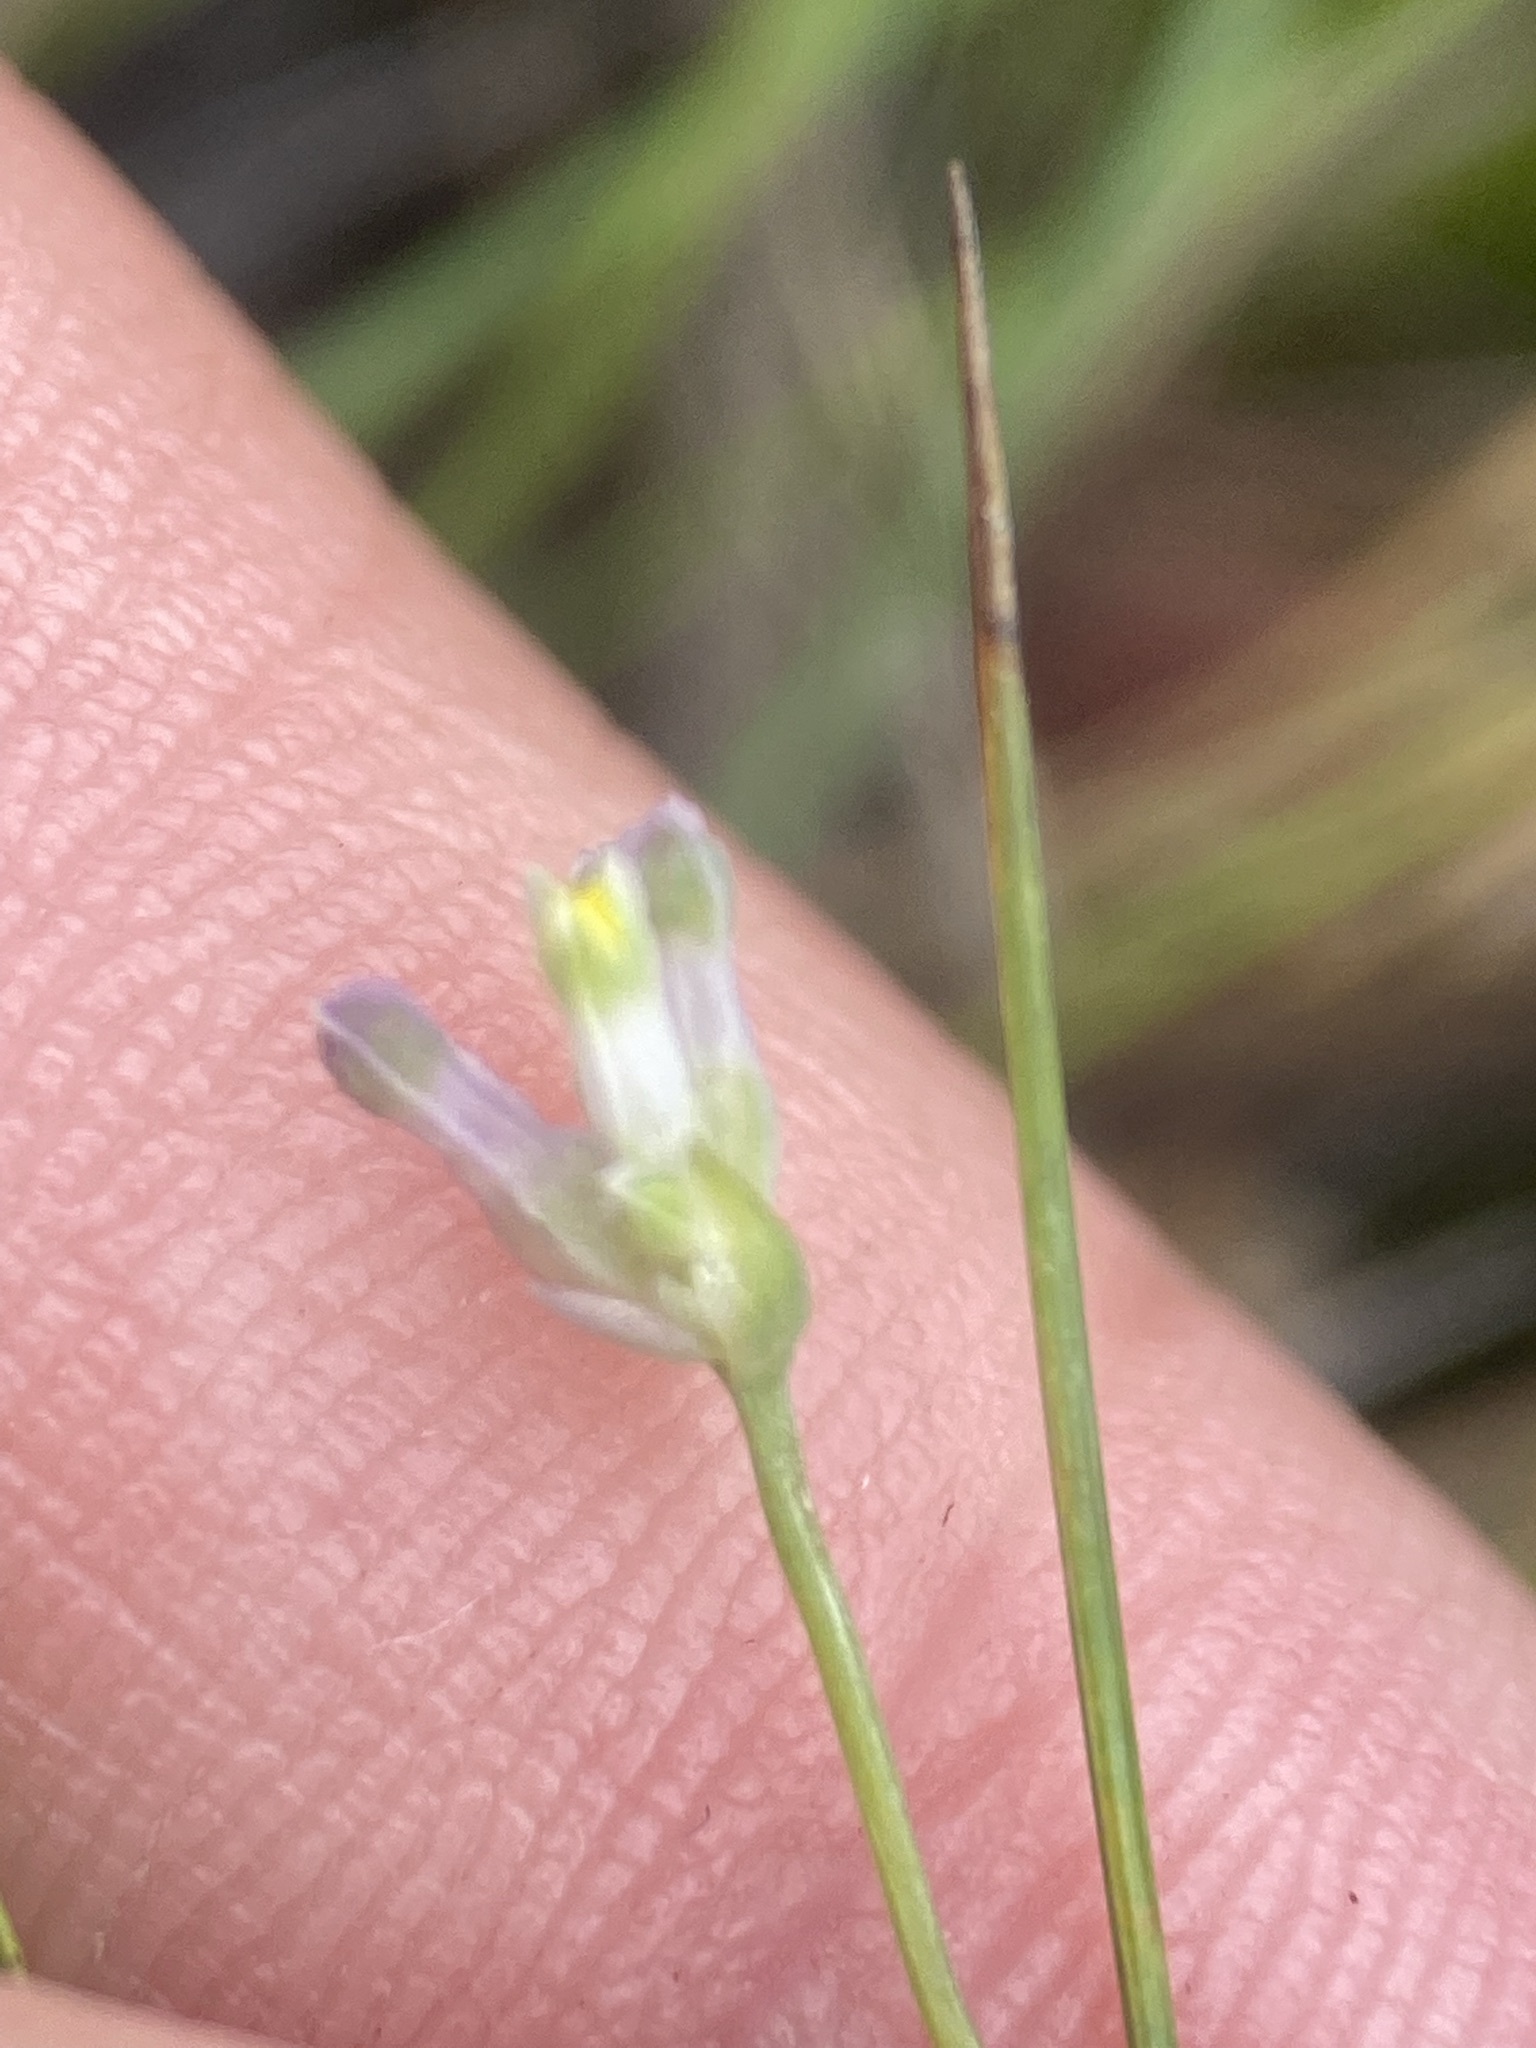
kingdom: Plantae
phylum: Tracheophyta
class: Liliopsida
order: Dioscoreales
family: Burmanniaceae
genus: Burmannia
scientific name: Burmannia capitata
